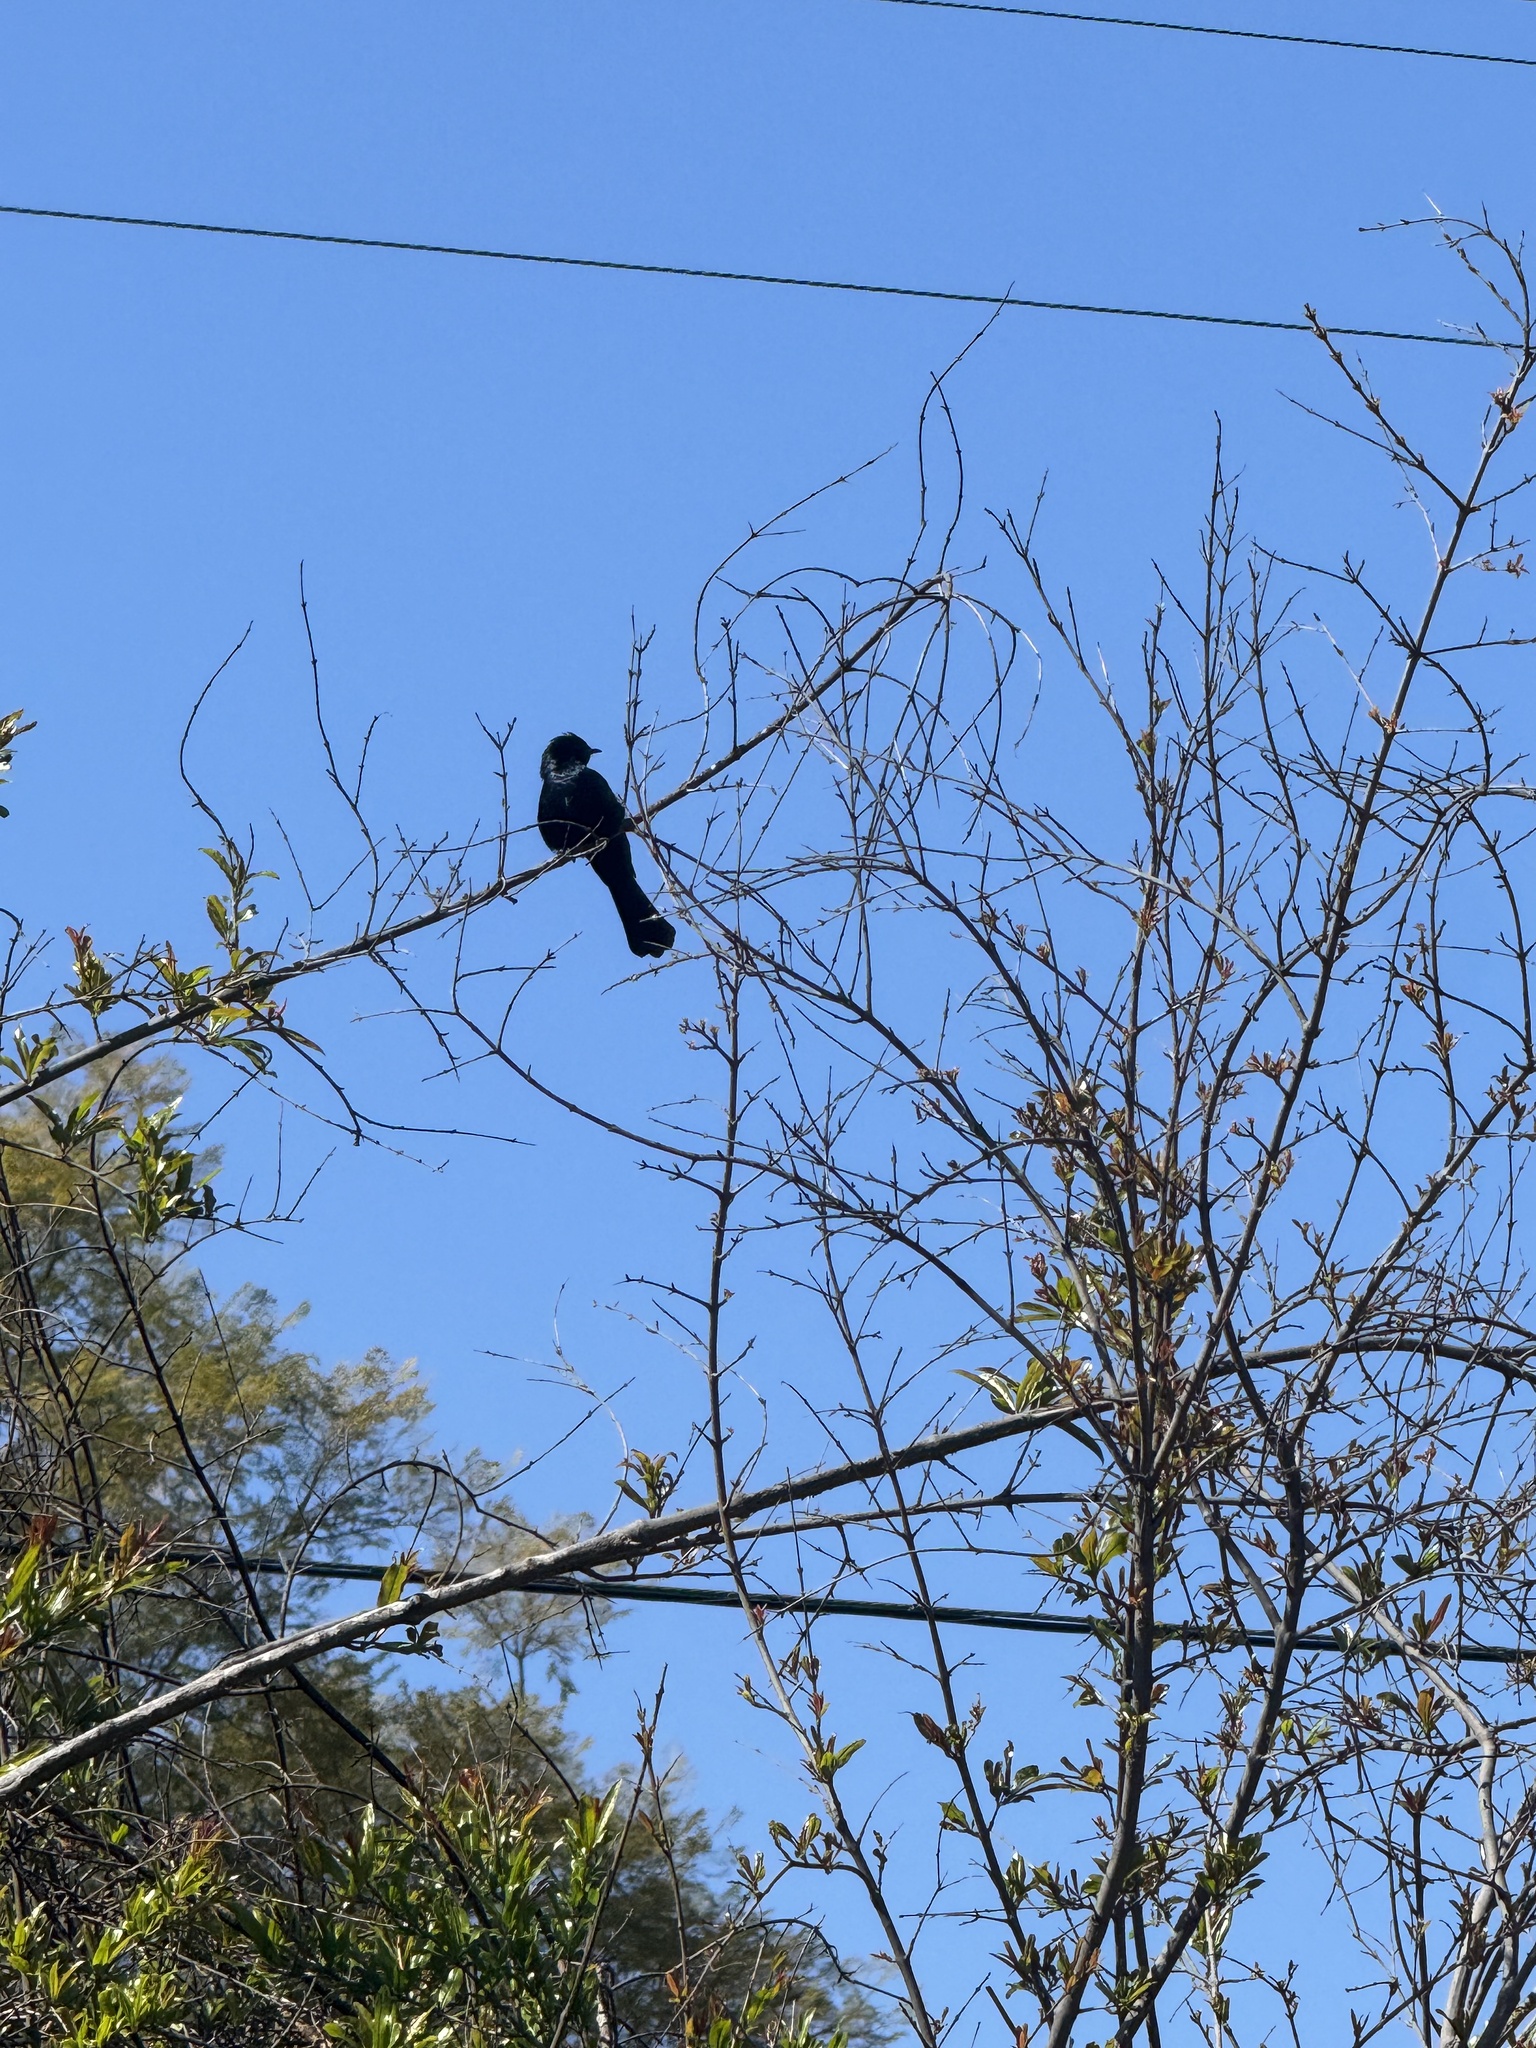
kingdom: Animalia
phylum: Chordata
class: Aves
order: Passeriformes
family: Ptilogonatidae
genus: Phainopepla
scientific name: Phainopepla nitens
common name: Phainopepla
